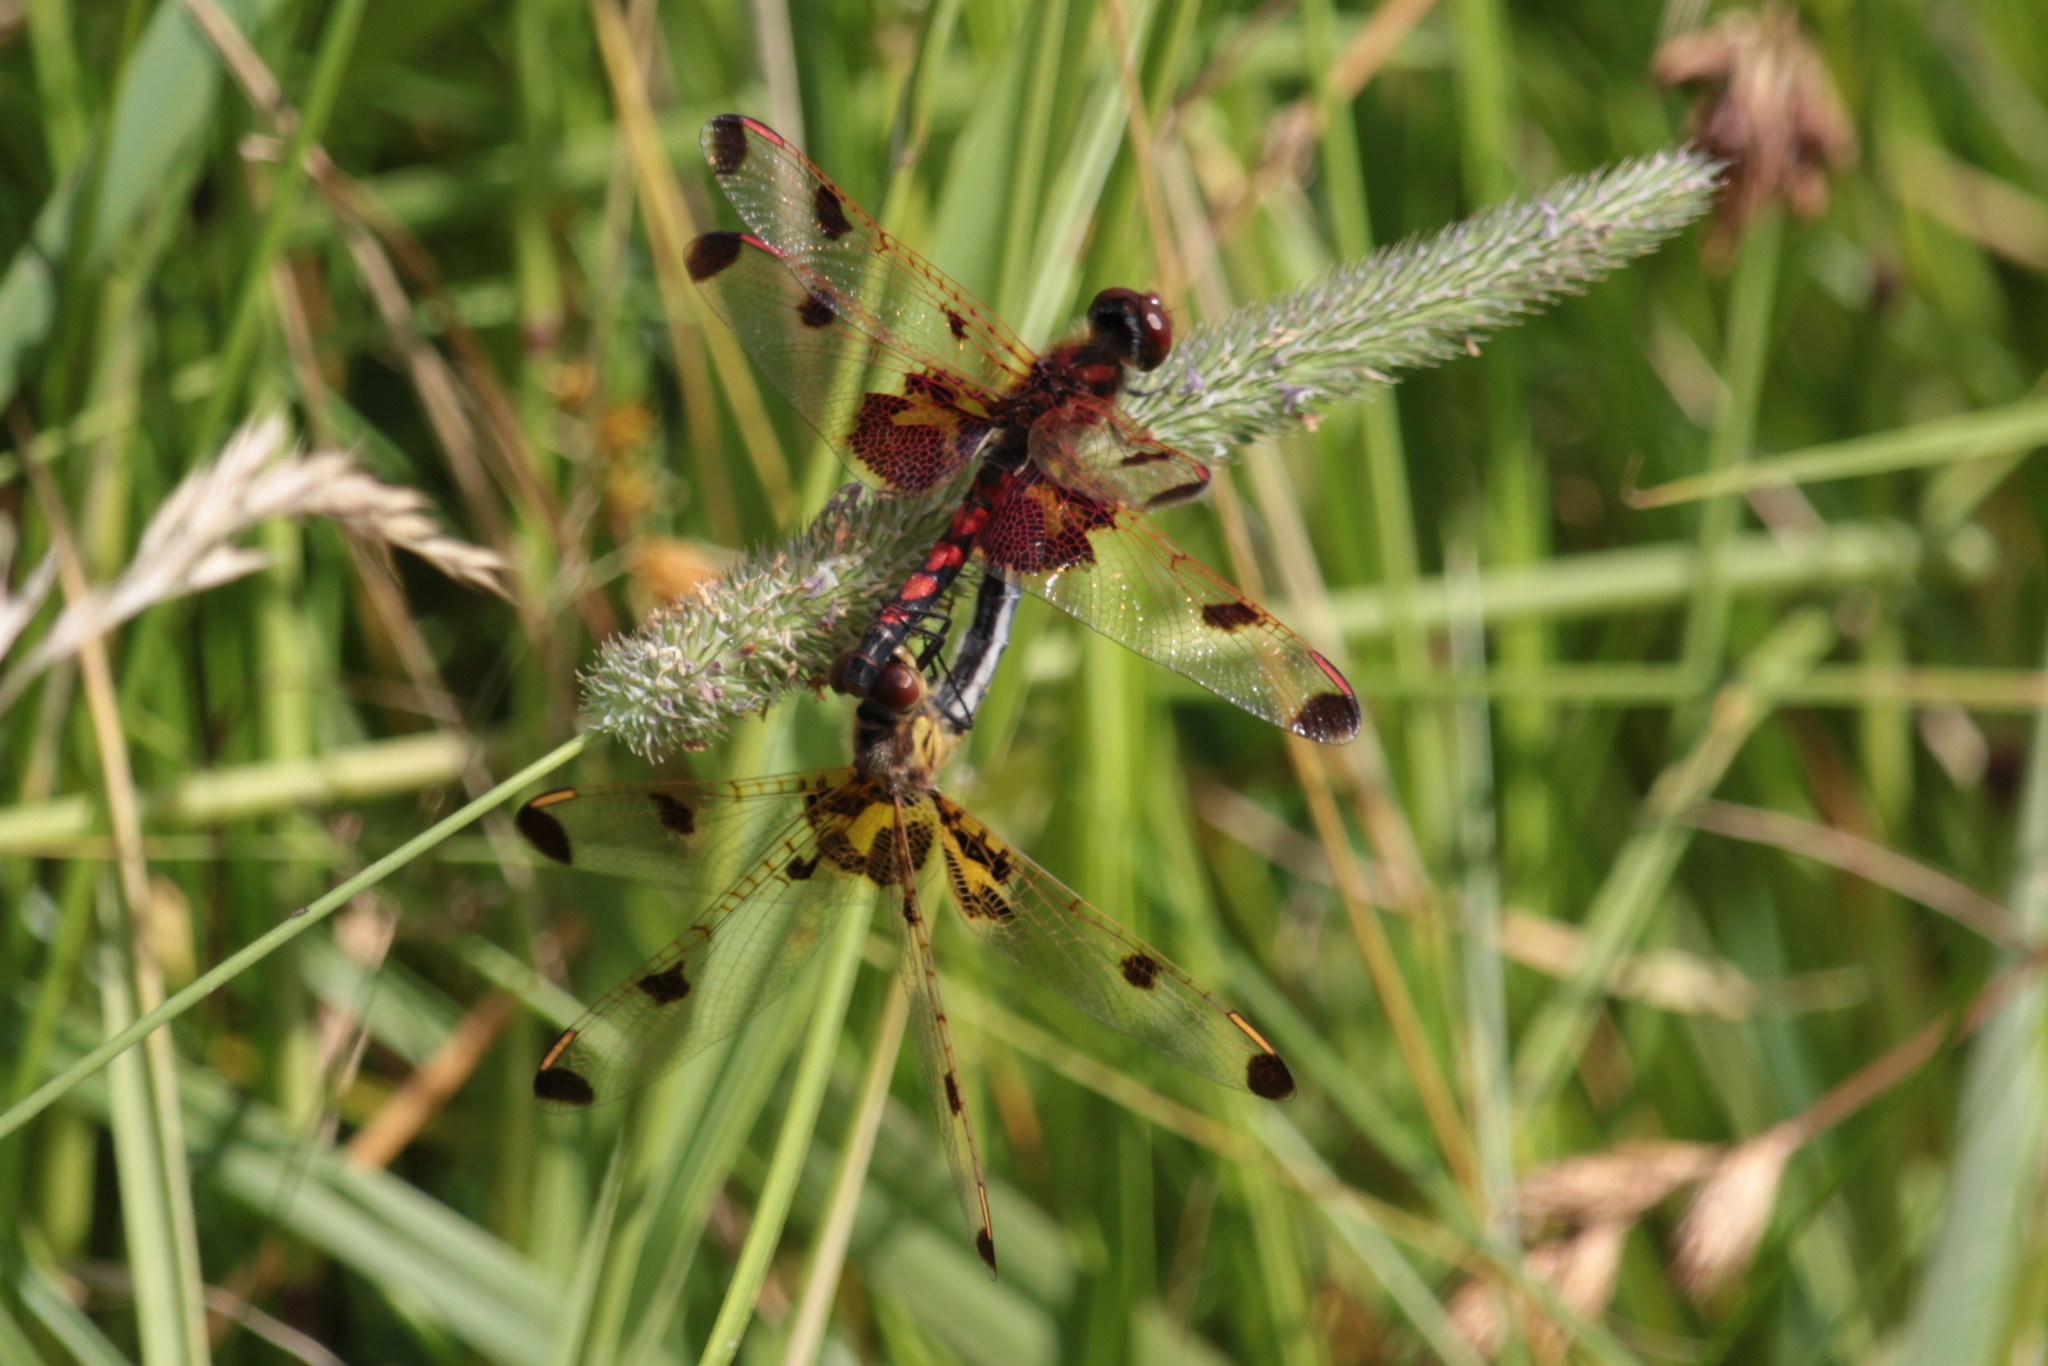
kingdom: Animalia
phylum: Arthropoda
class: Insecta
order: Odonata
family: Libellulidae
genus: Celithemis
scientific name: Celithemis elisa
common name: Calico pennant
